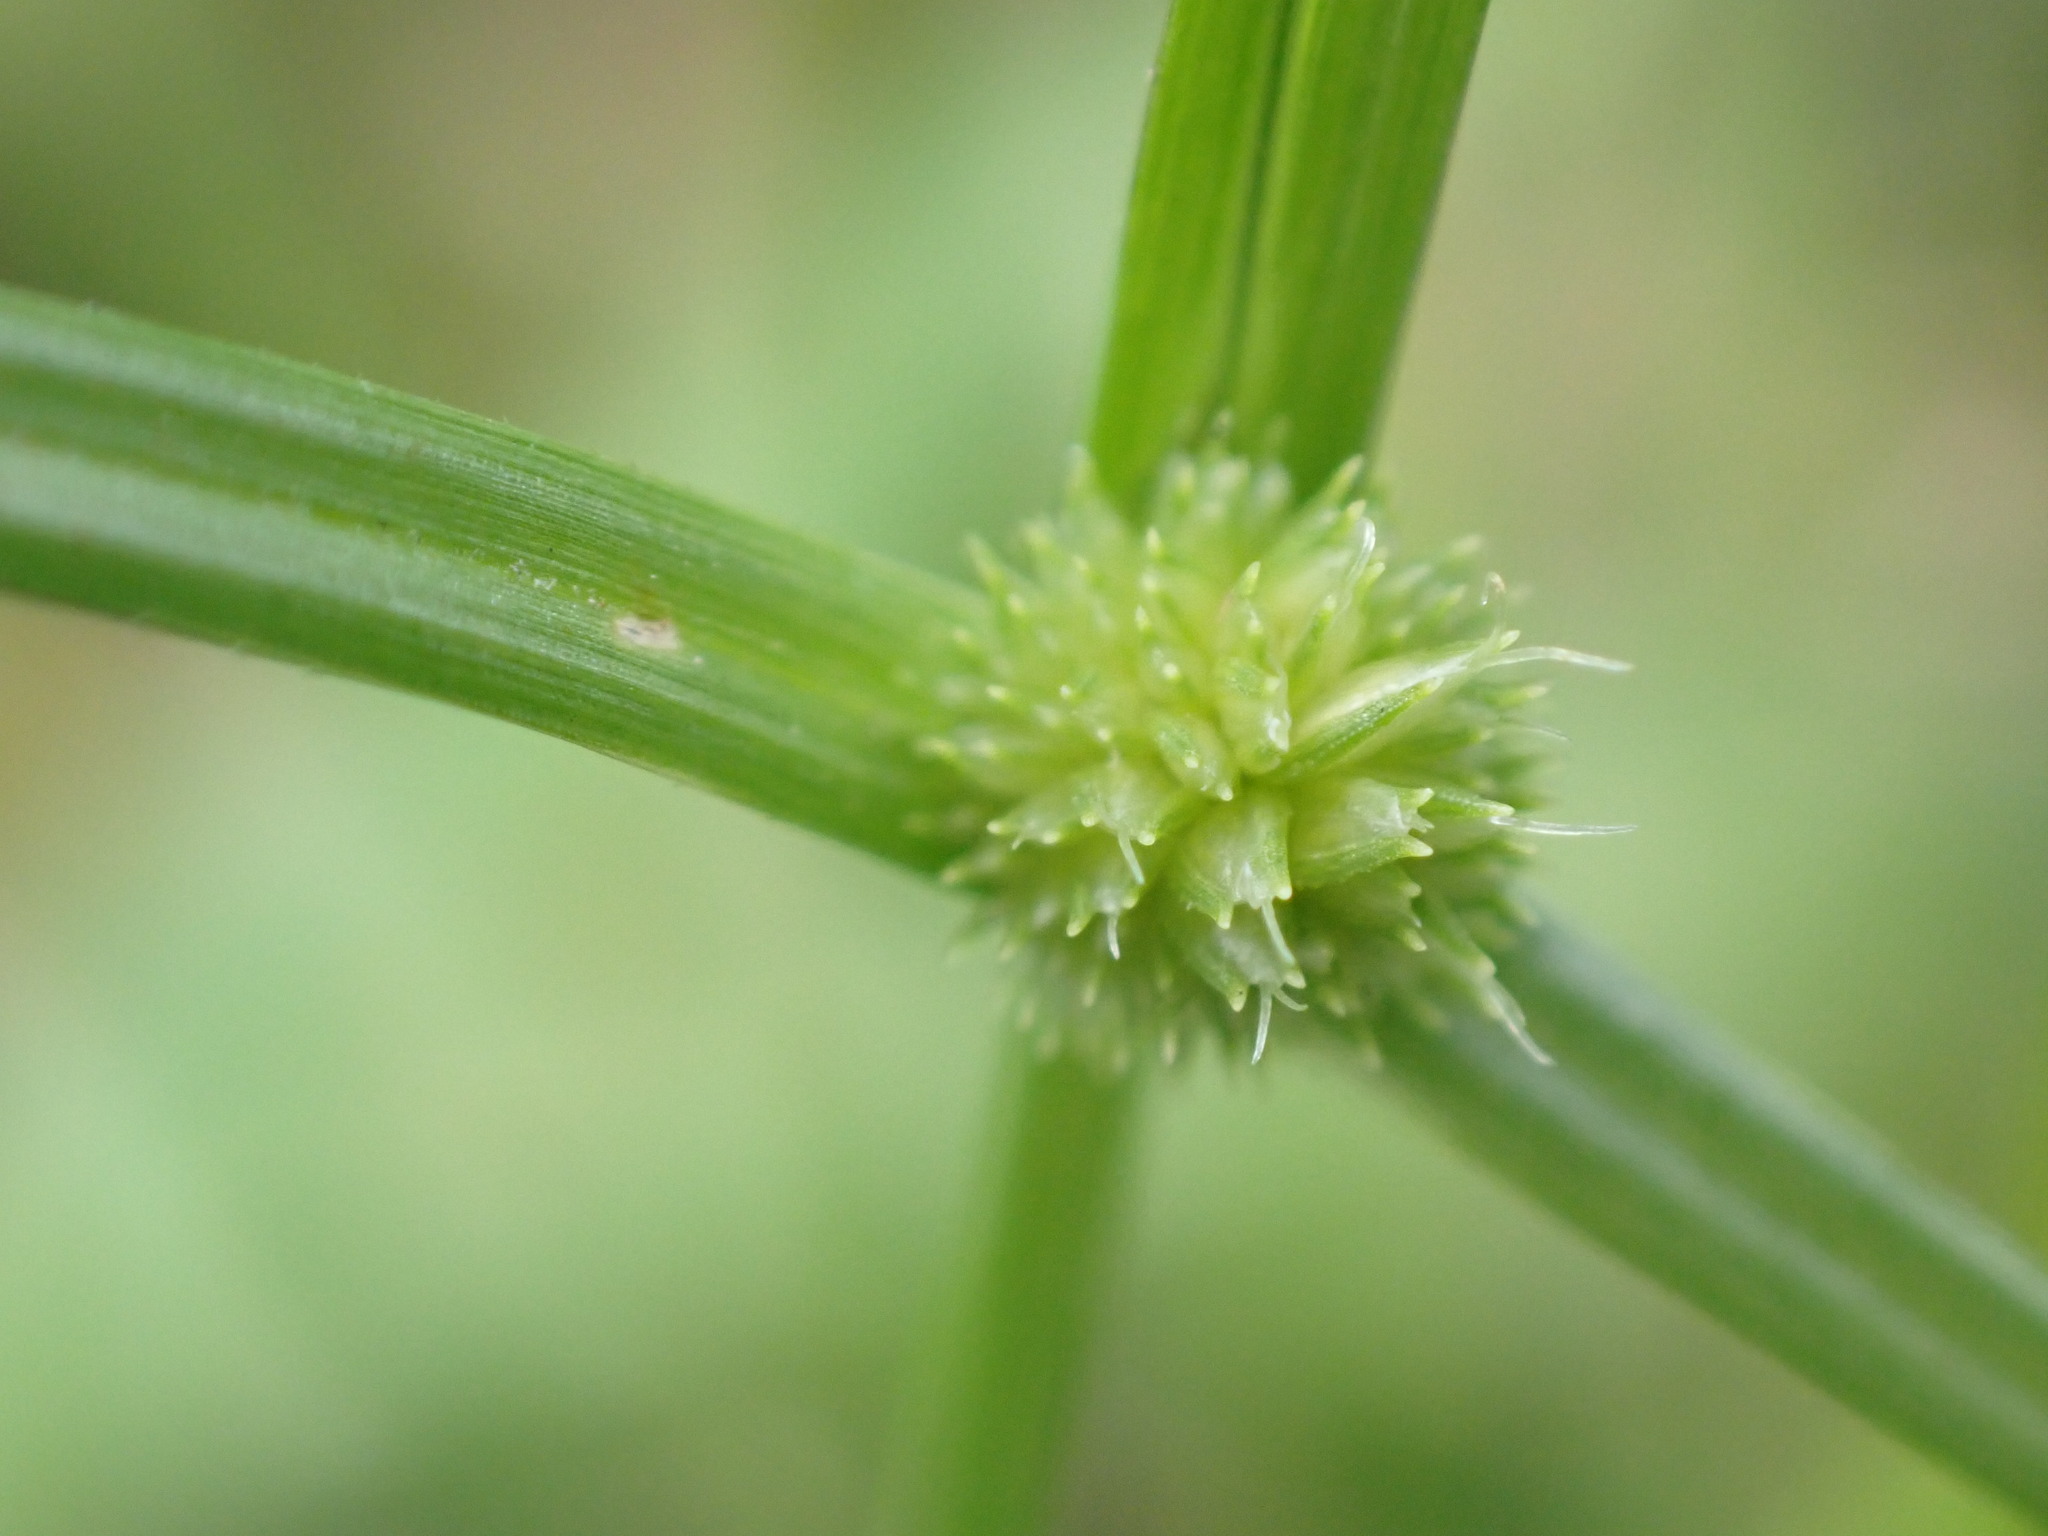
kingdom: Plantae
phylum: Tracheophyta
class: Liliopsida
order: Poales
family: Cyperaceae
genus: Cyperus
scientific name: Cyperus brevifolius
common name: Globe kyllinga
